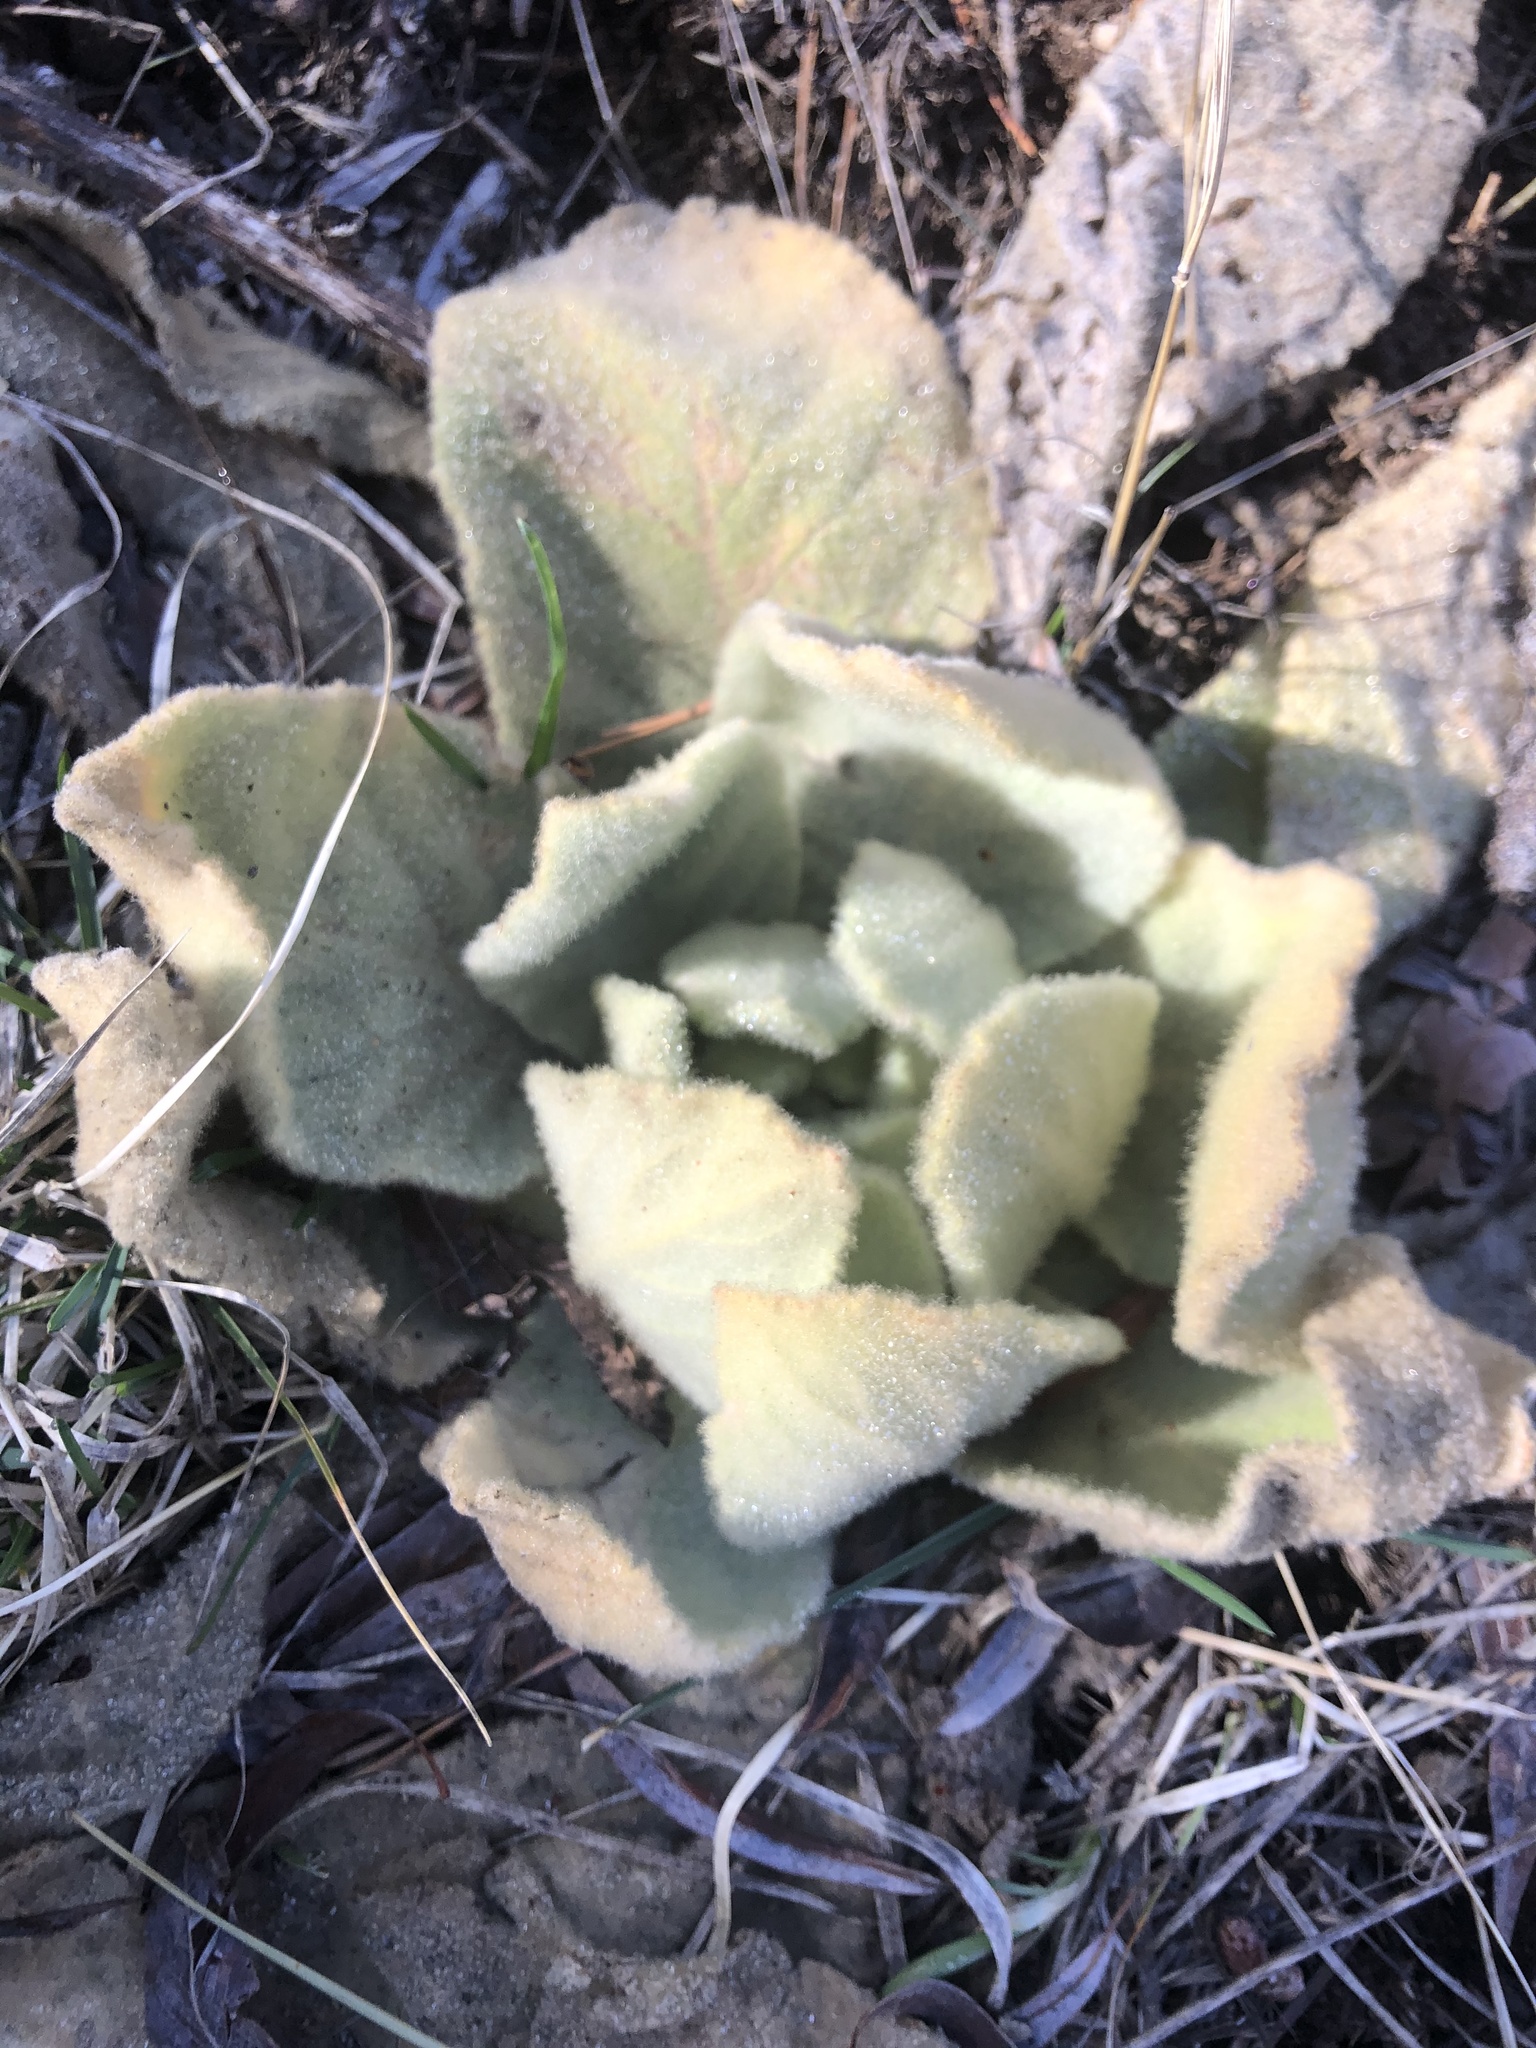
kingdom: Plantae
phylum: Tracheophyta
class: Magnoliopsida
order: Lamiales
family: Scrophulariaceae
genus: Verbascum
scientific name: Verbascum thapsus
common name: Common mullein
